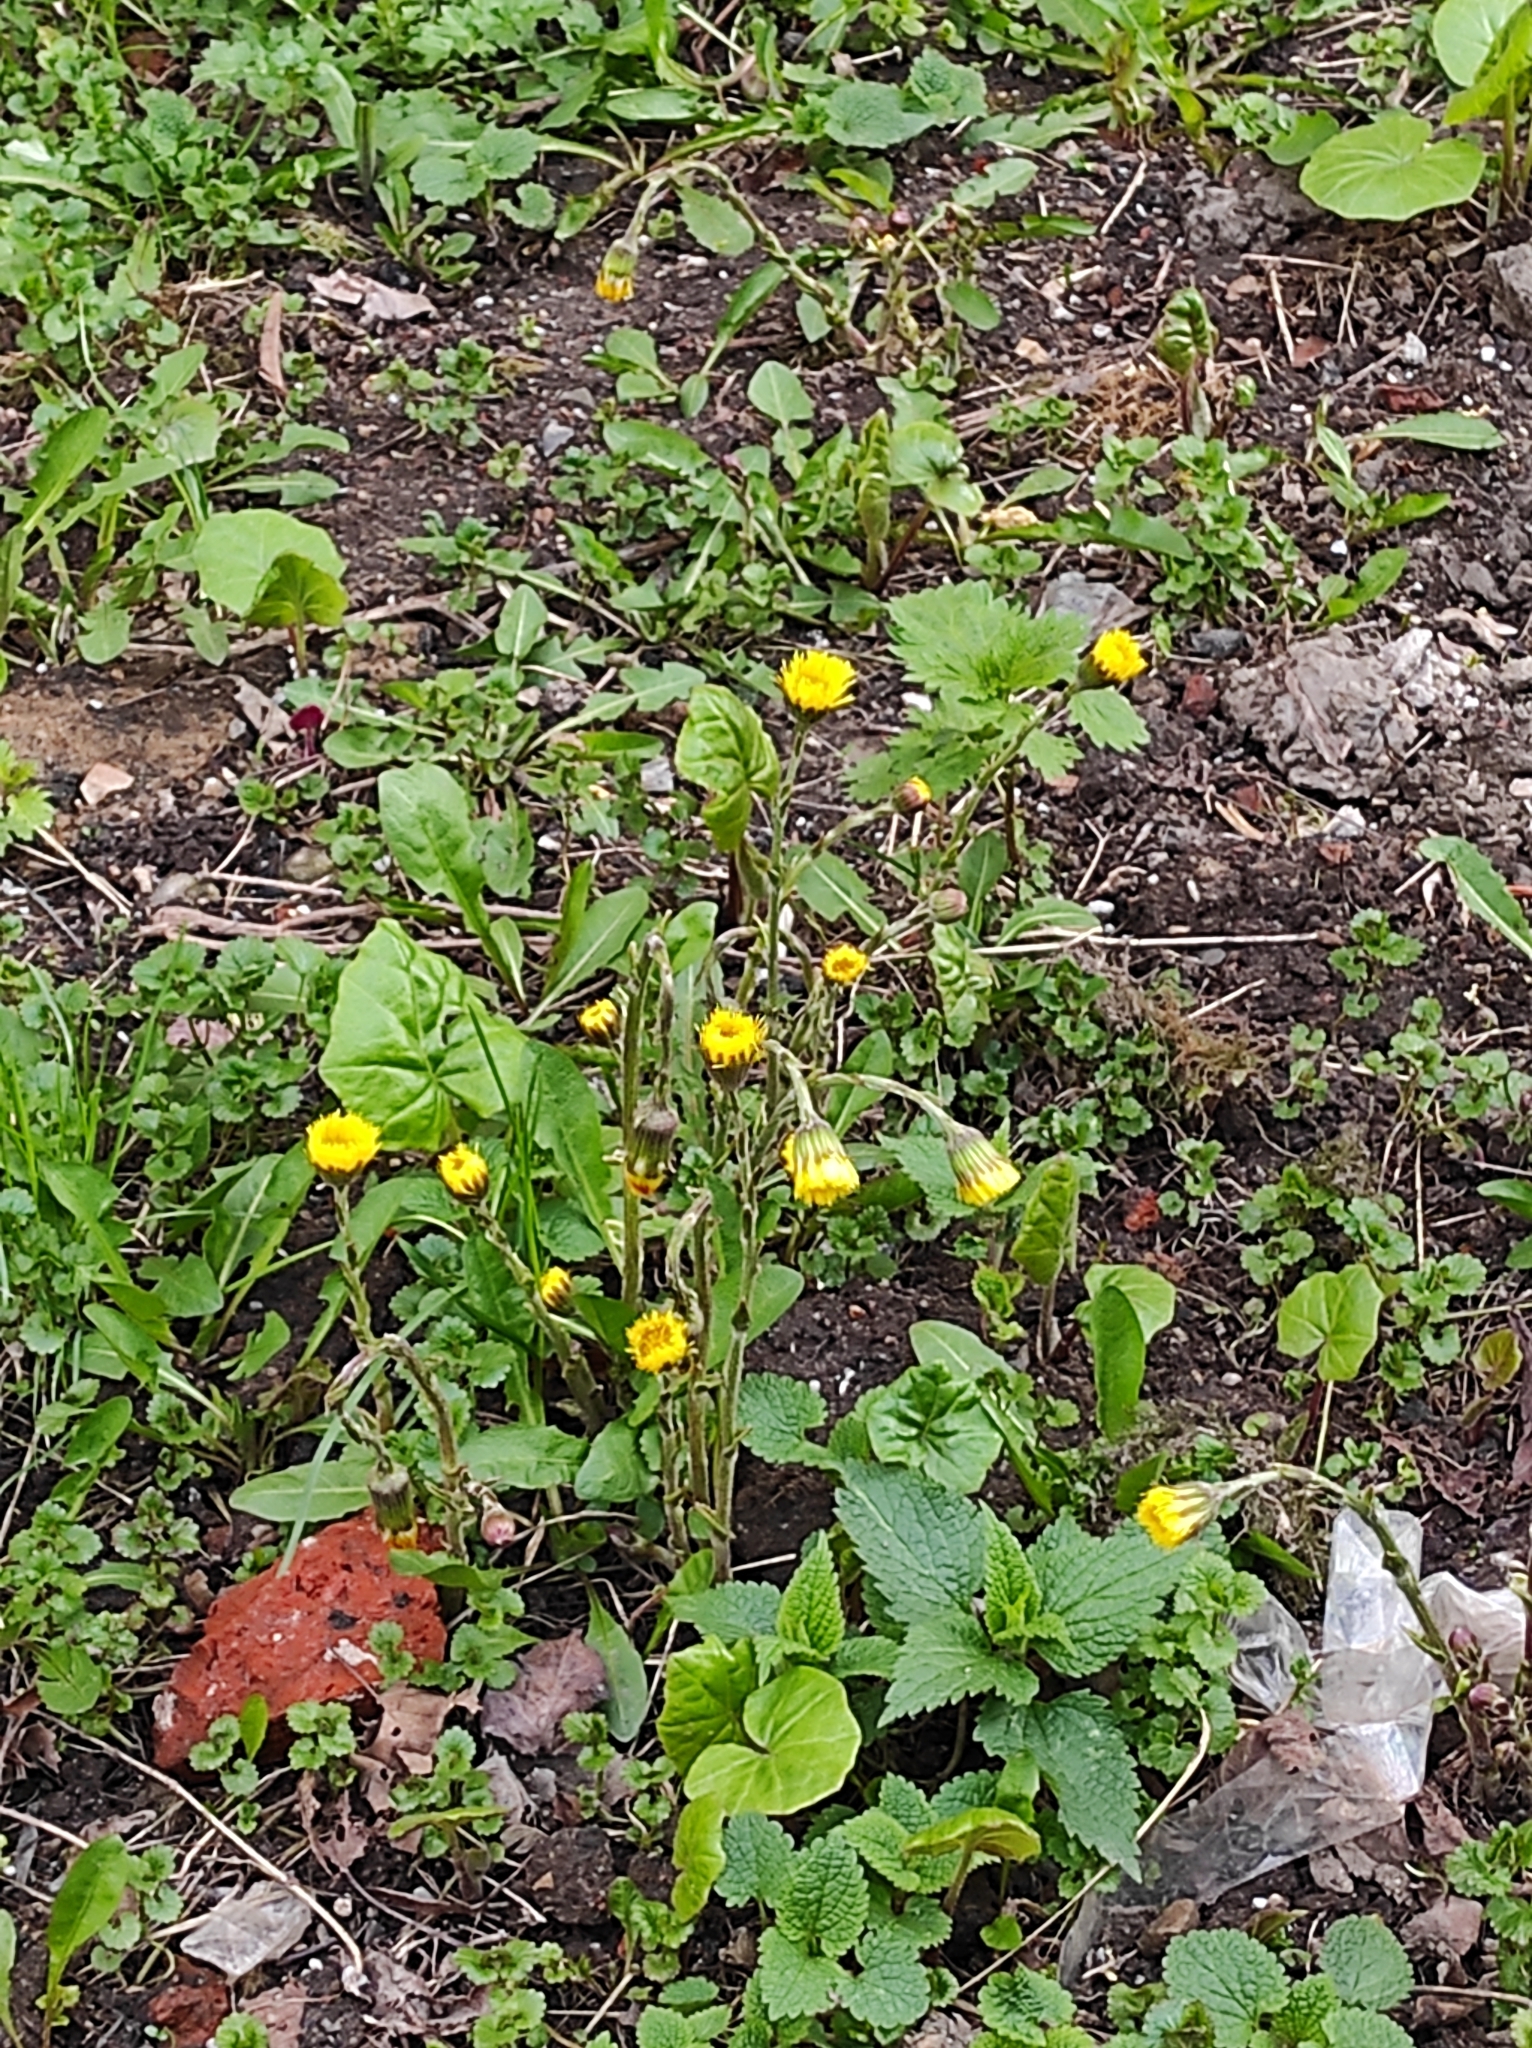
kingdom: Plantae
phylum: Tracheophyta
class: Magnoliopsida
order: Asterales
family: Asteraceae
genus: Tussilago
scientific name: Tussilago farfara
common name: Coltsfoot
